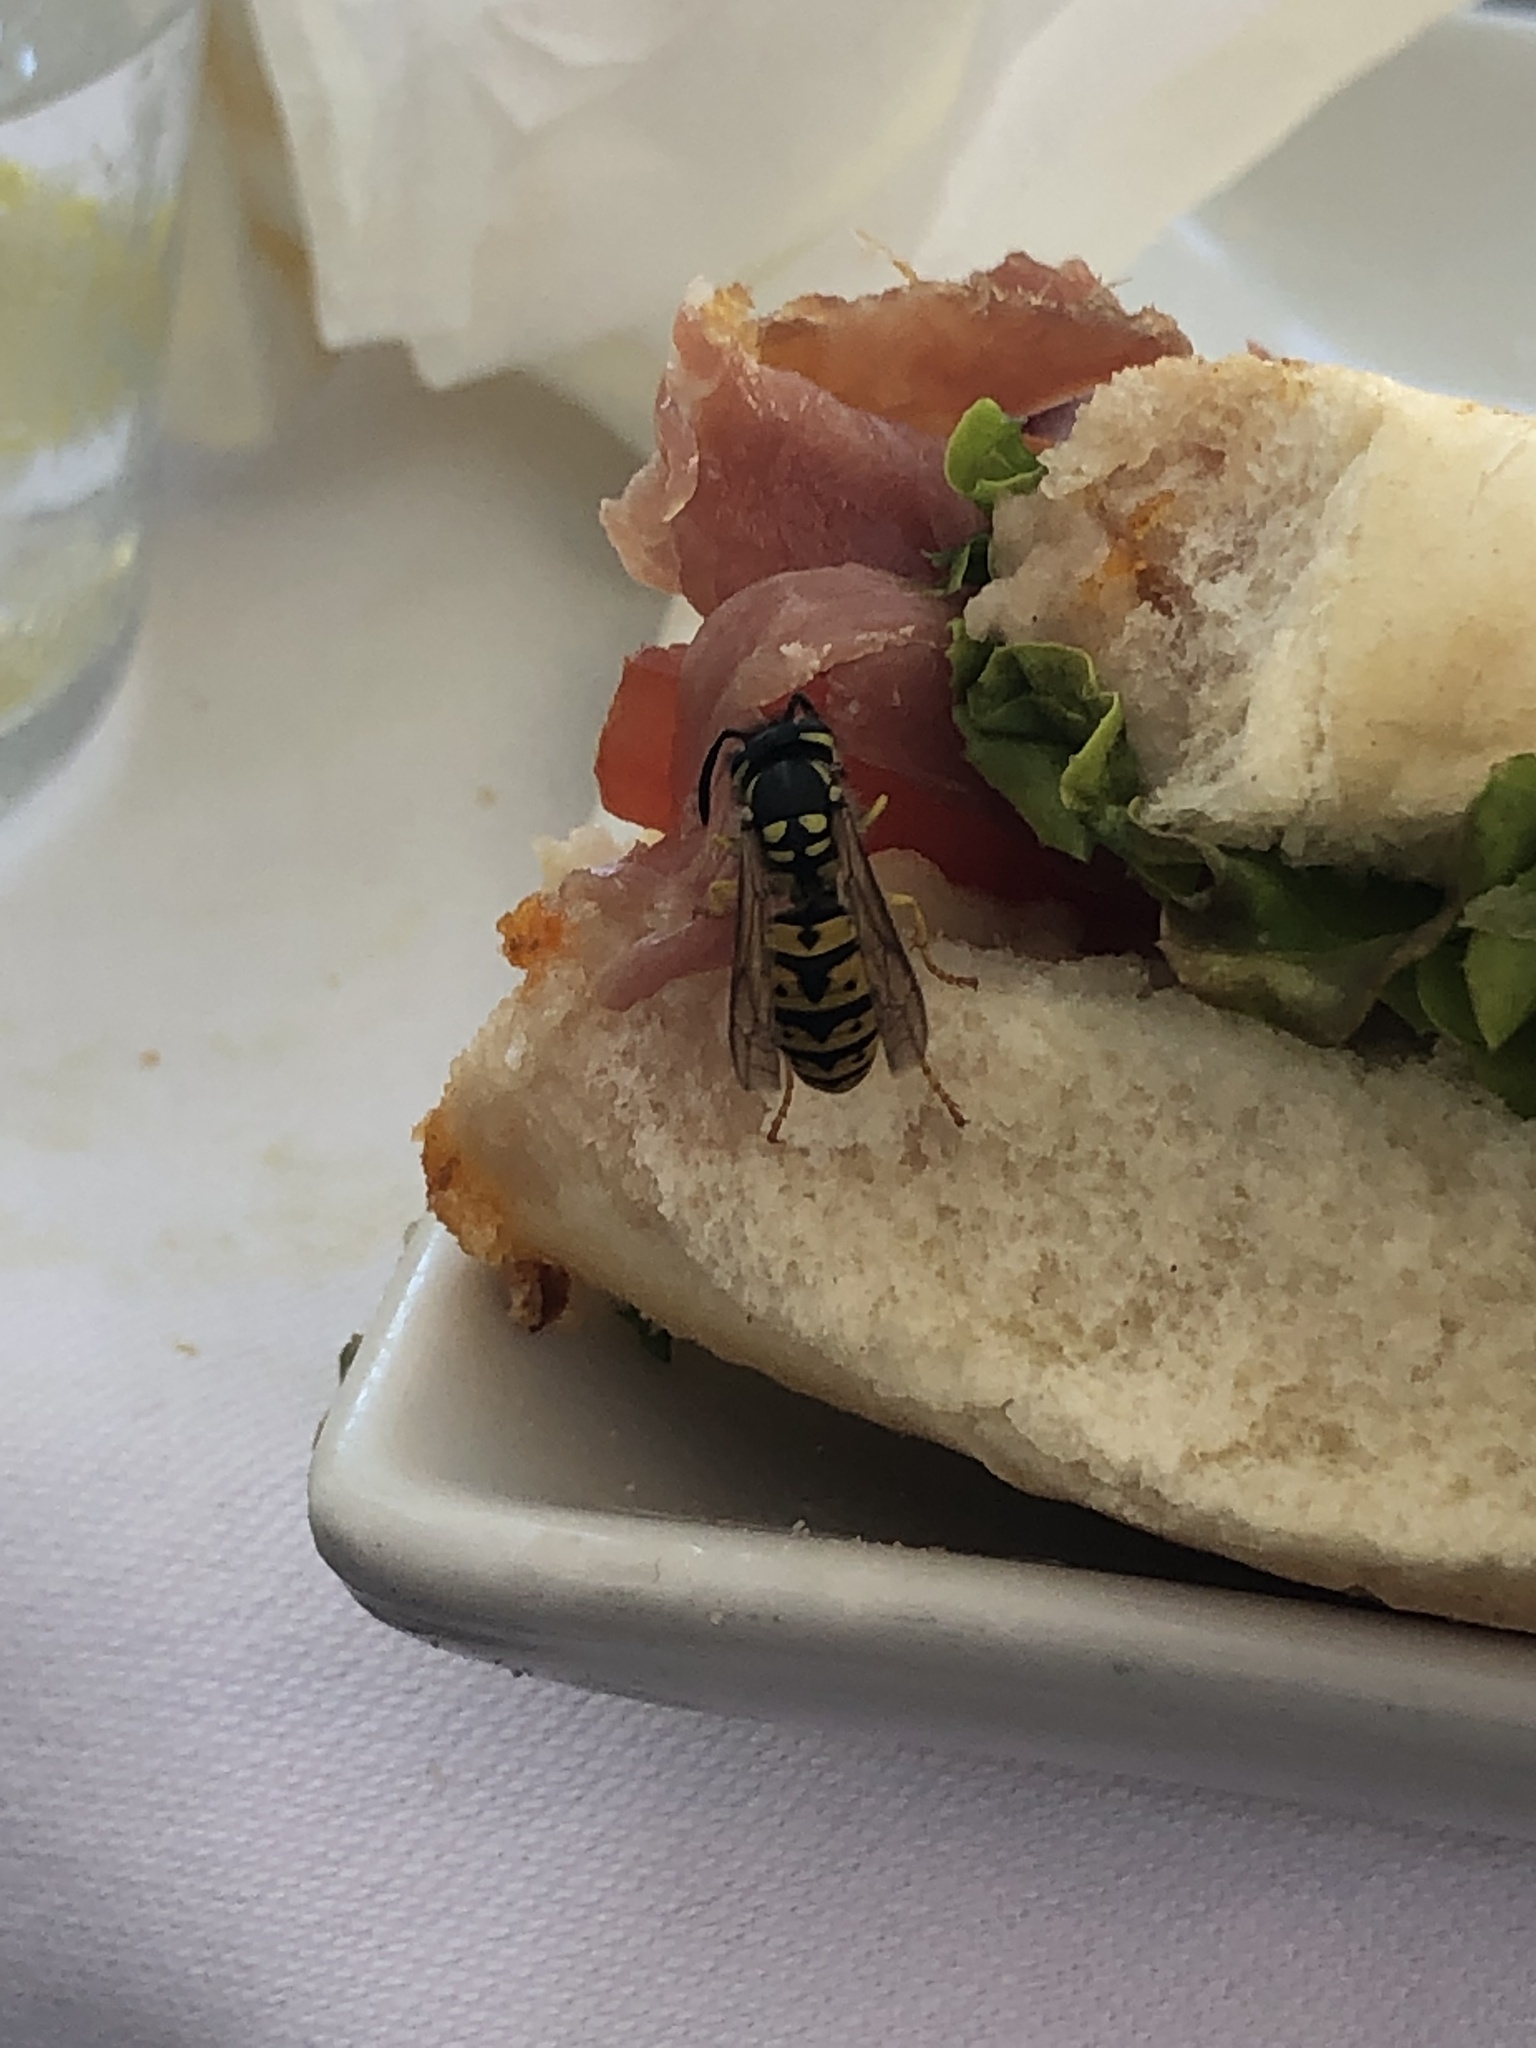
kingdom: Animalia
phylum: Arthropoda
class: Insecta
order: Hymenoptera
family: Vespidae
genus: Vespula
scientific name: Vespula germanica
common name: German wasp
